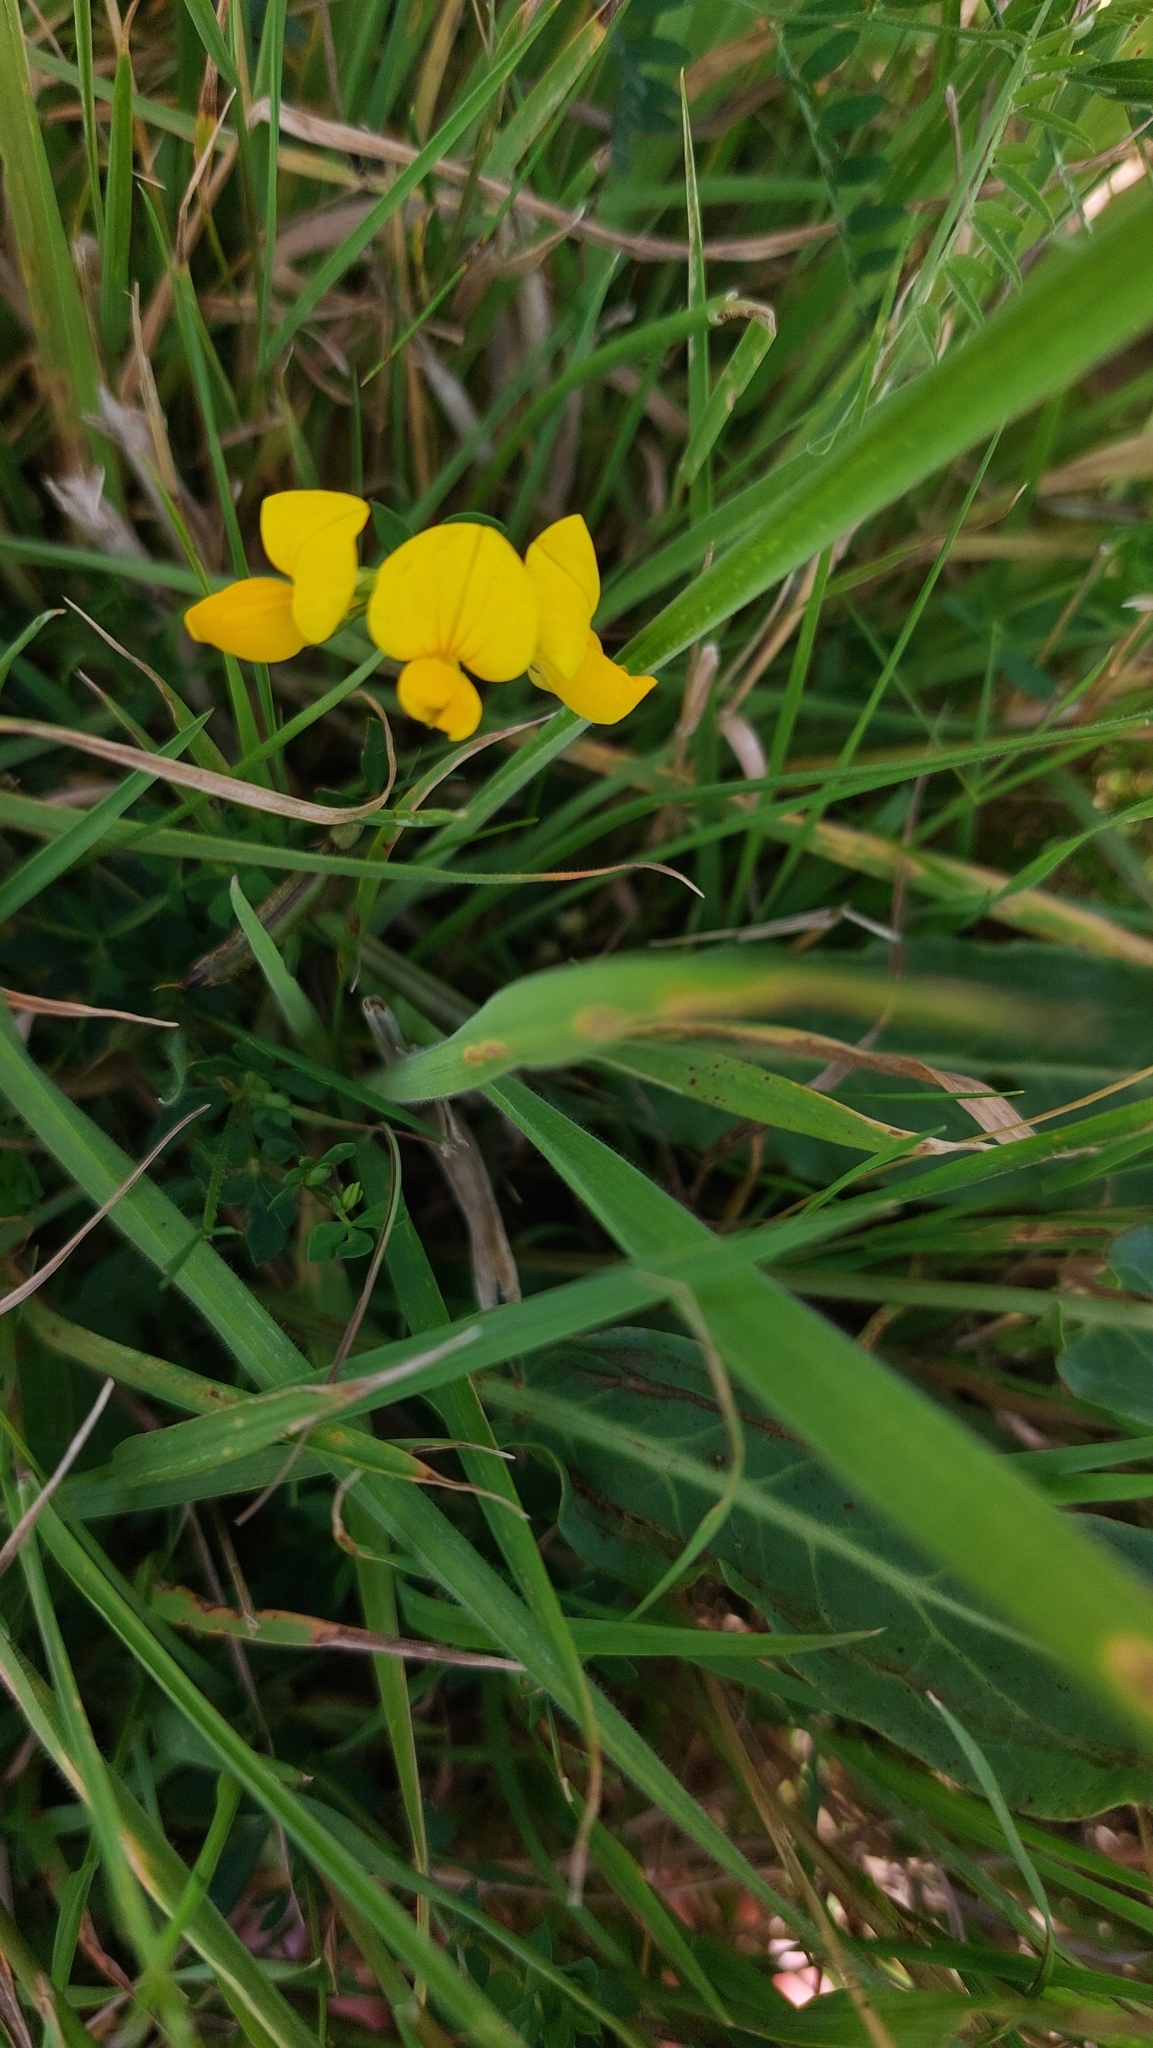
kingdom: Plantae
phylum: Tracheophyta
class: Magnoliopsida
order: Fabales
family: Fabaceae
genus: Lotus
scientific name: Lotus corniculatus
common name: Common bird's-foot-trefoil
